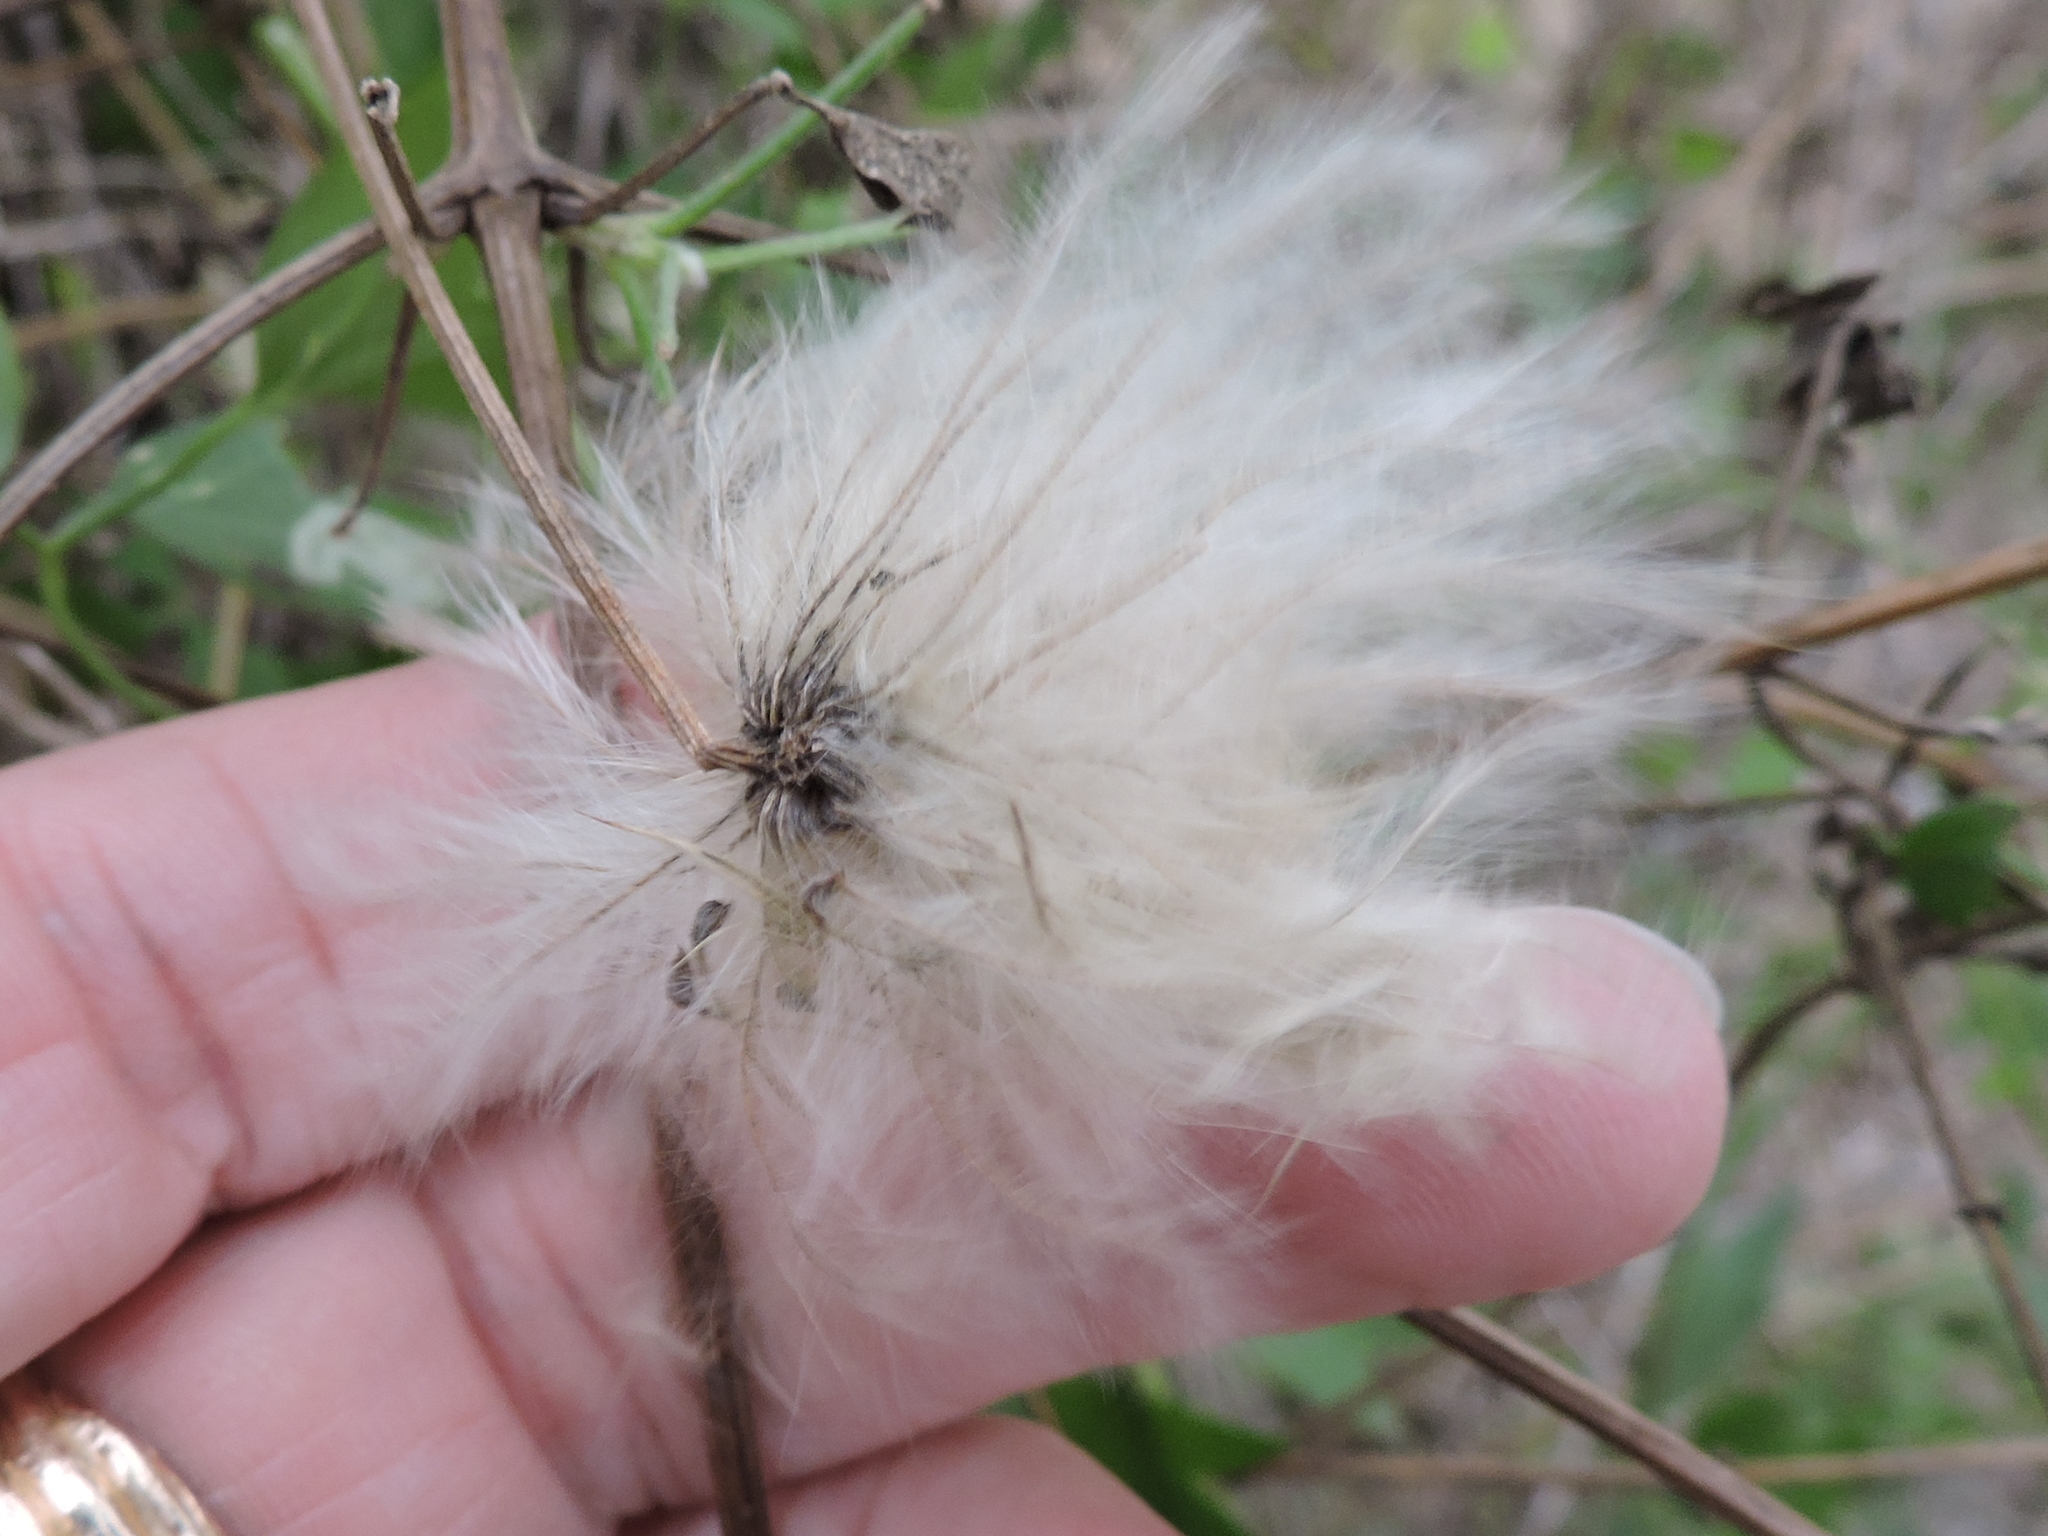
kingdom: Plantae
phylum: Tracheophyta
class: Magnoliopsida
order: Ranunculales
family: Ranunculaceae
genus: Clematis
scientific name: Clematis drummondii
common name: Texas virgin's bower
